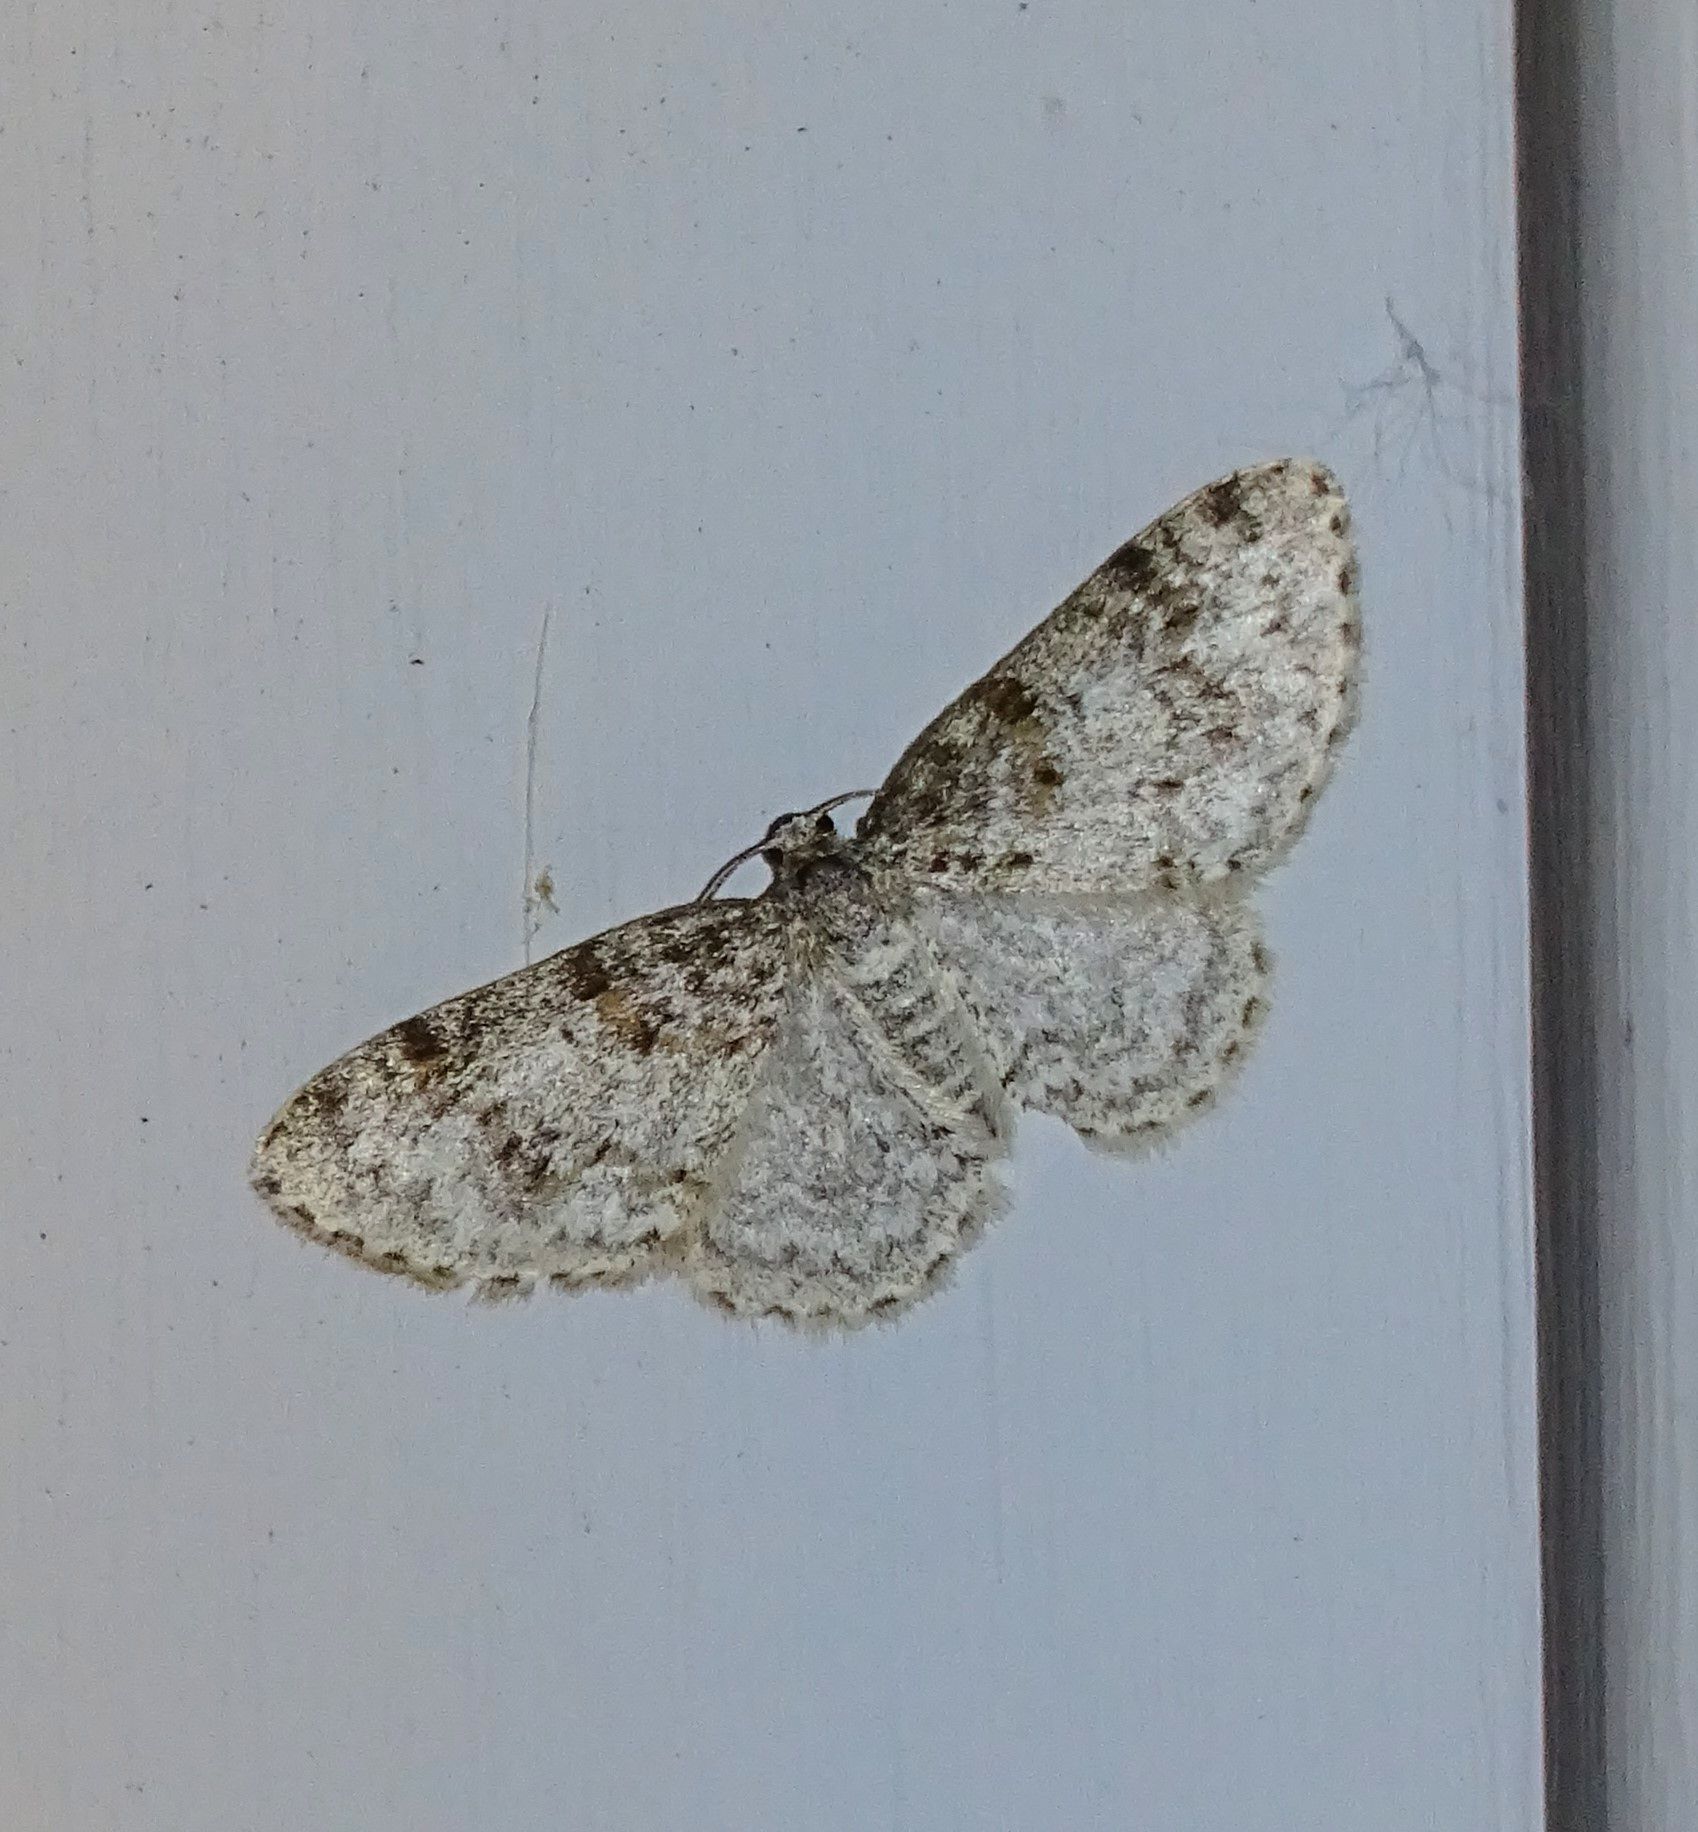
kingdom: Animalia
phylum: Arthropoda
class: Insecta
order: Lepidoptera
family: Geometridae
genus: Hydrelia
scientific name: Hydrelia inornata
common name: Unadorned carpet moth
